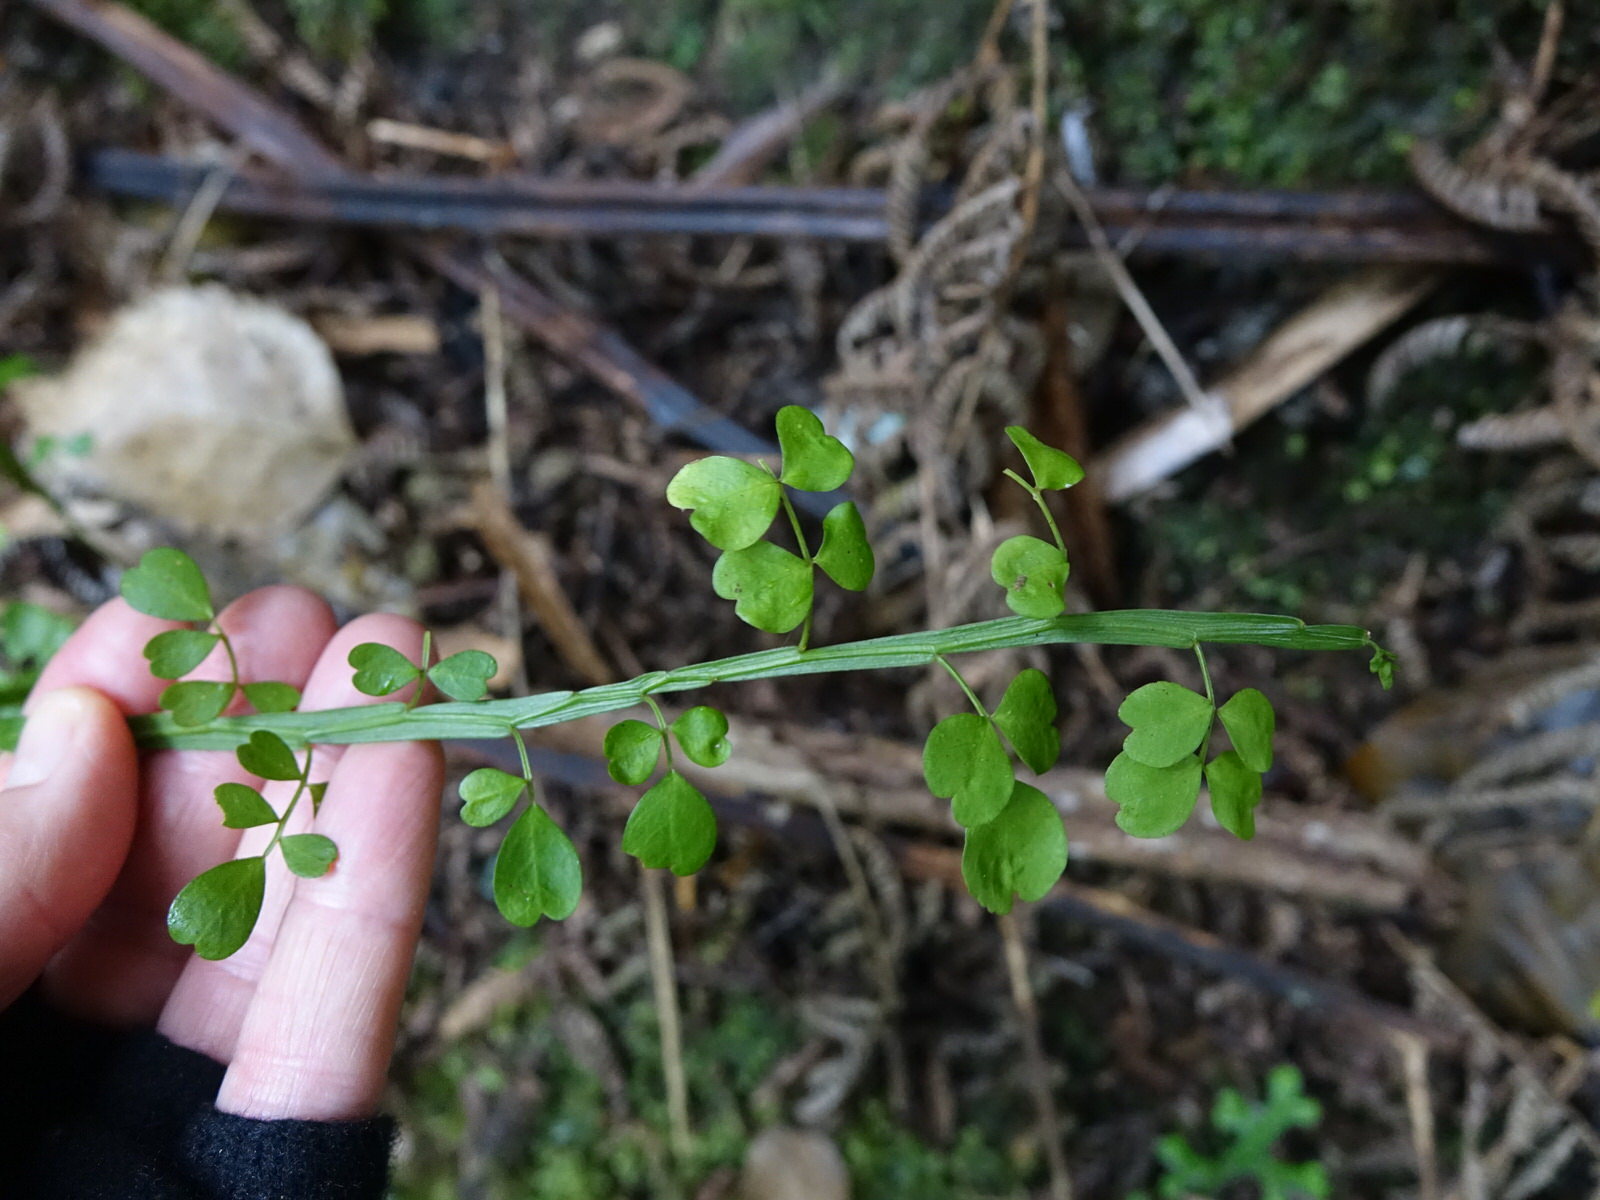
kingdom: Plantae
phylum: Tracheophyta
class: Magnoliopsida
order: Fabales
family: Fabaceae
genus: Carmichaelia
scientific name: Carmichaelia australis
